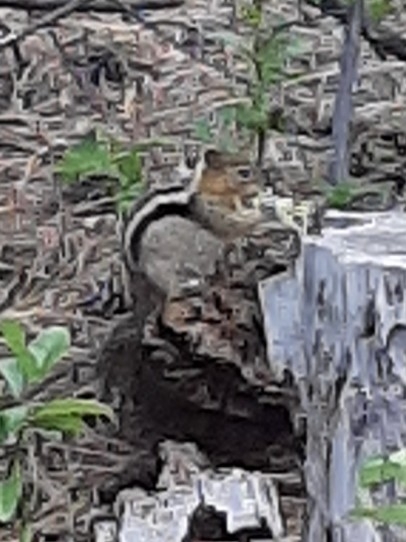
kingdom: Animalia
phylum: Chordata
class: Mammalia
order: Rodentia
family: Sciuridae
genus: Callospermophilus
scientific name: Callospermophilus lateralis
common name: Golden-mantled ground squirrel
